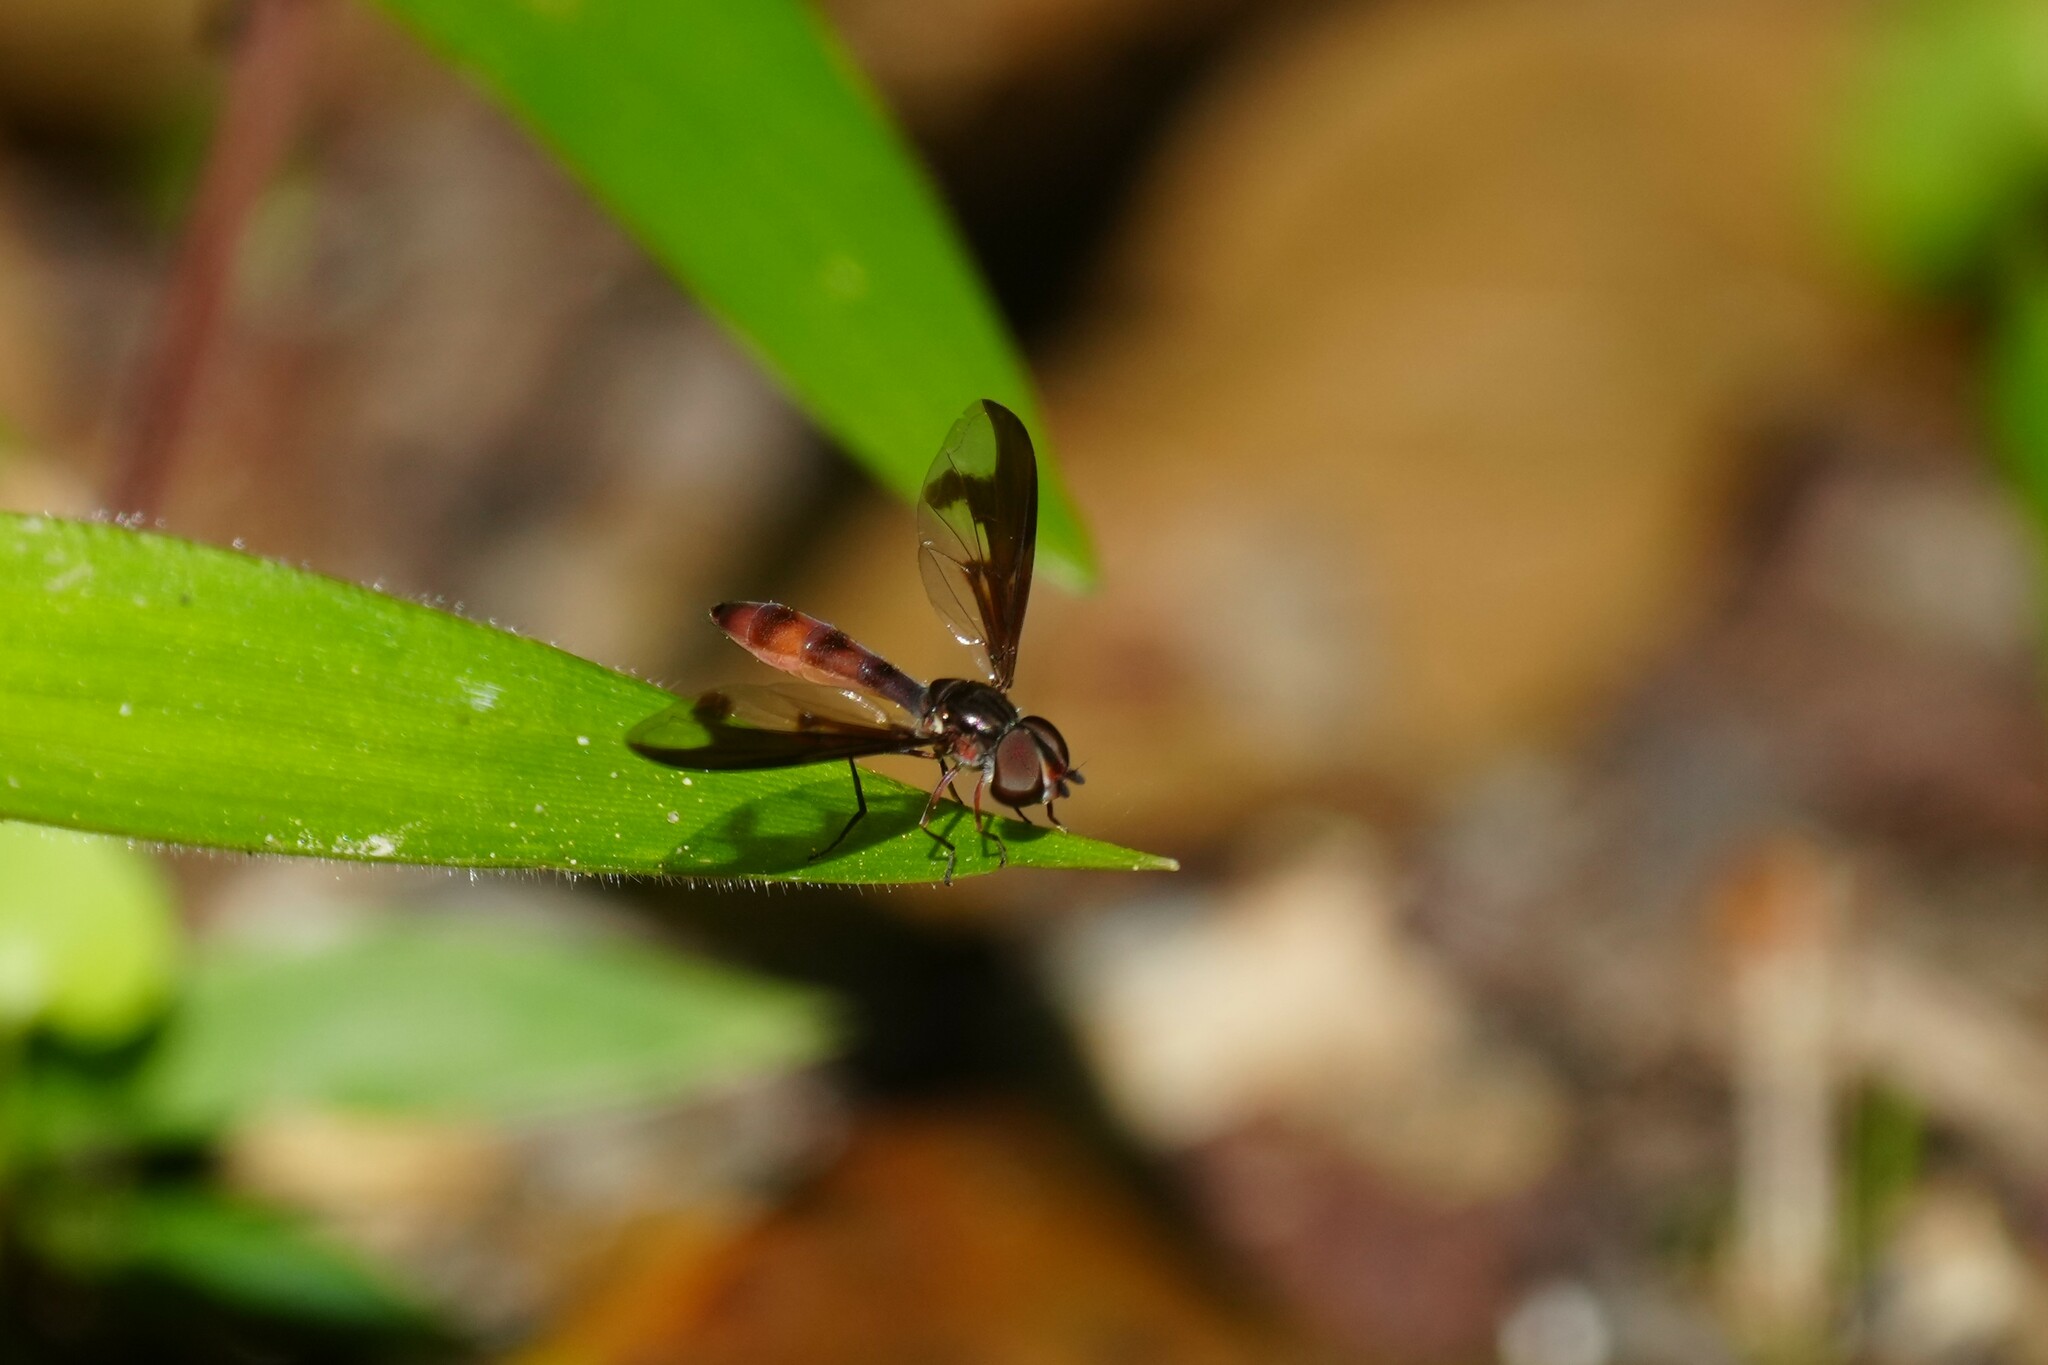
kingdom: Animalia
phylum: Arthropoda
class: Insecta
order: Diptera
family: Syrphidae
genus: Ocyptamus
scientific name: Ocyptamus fuscipennis
